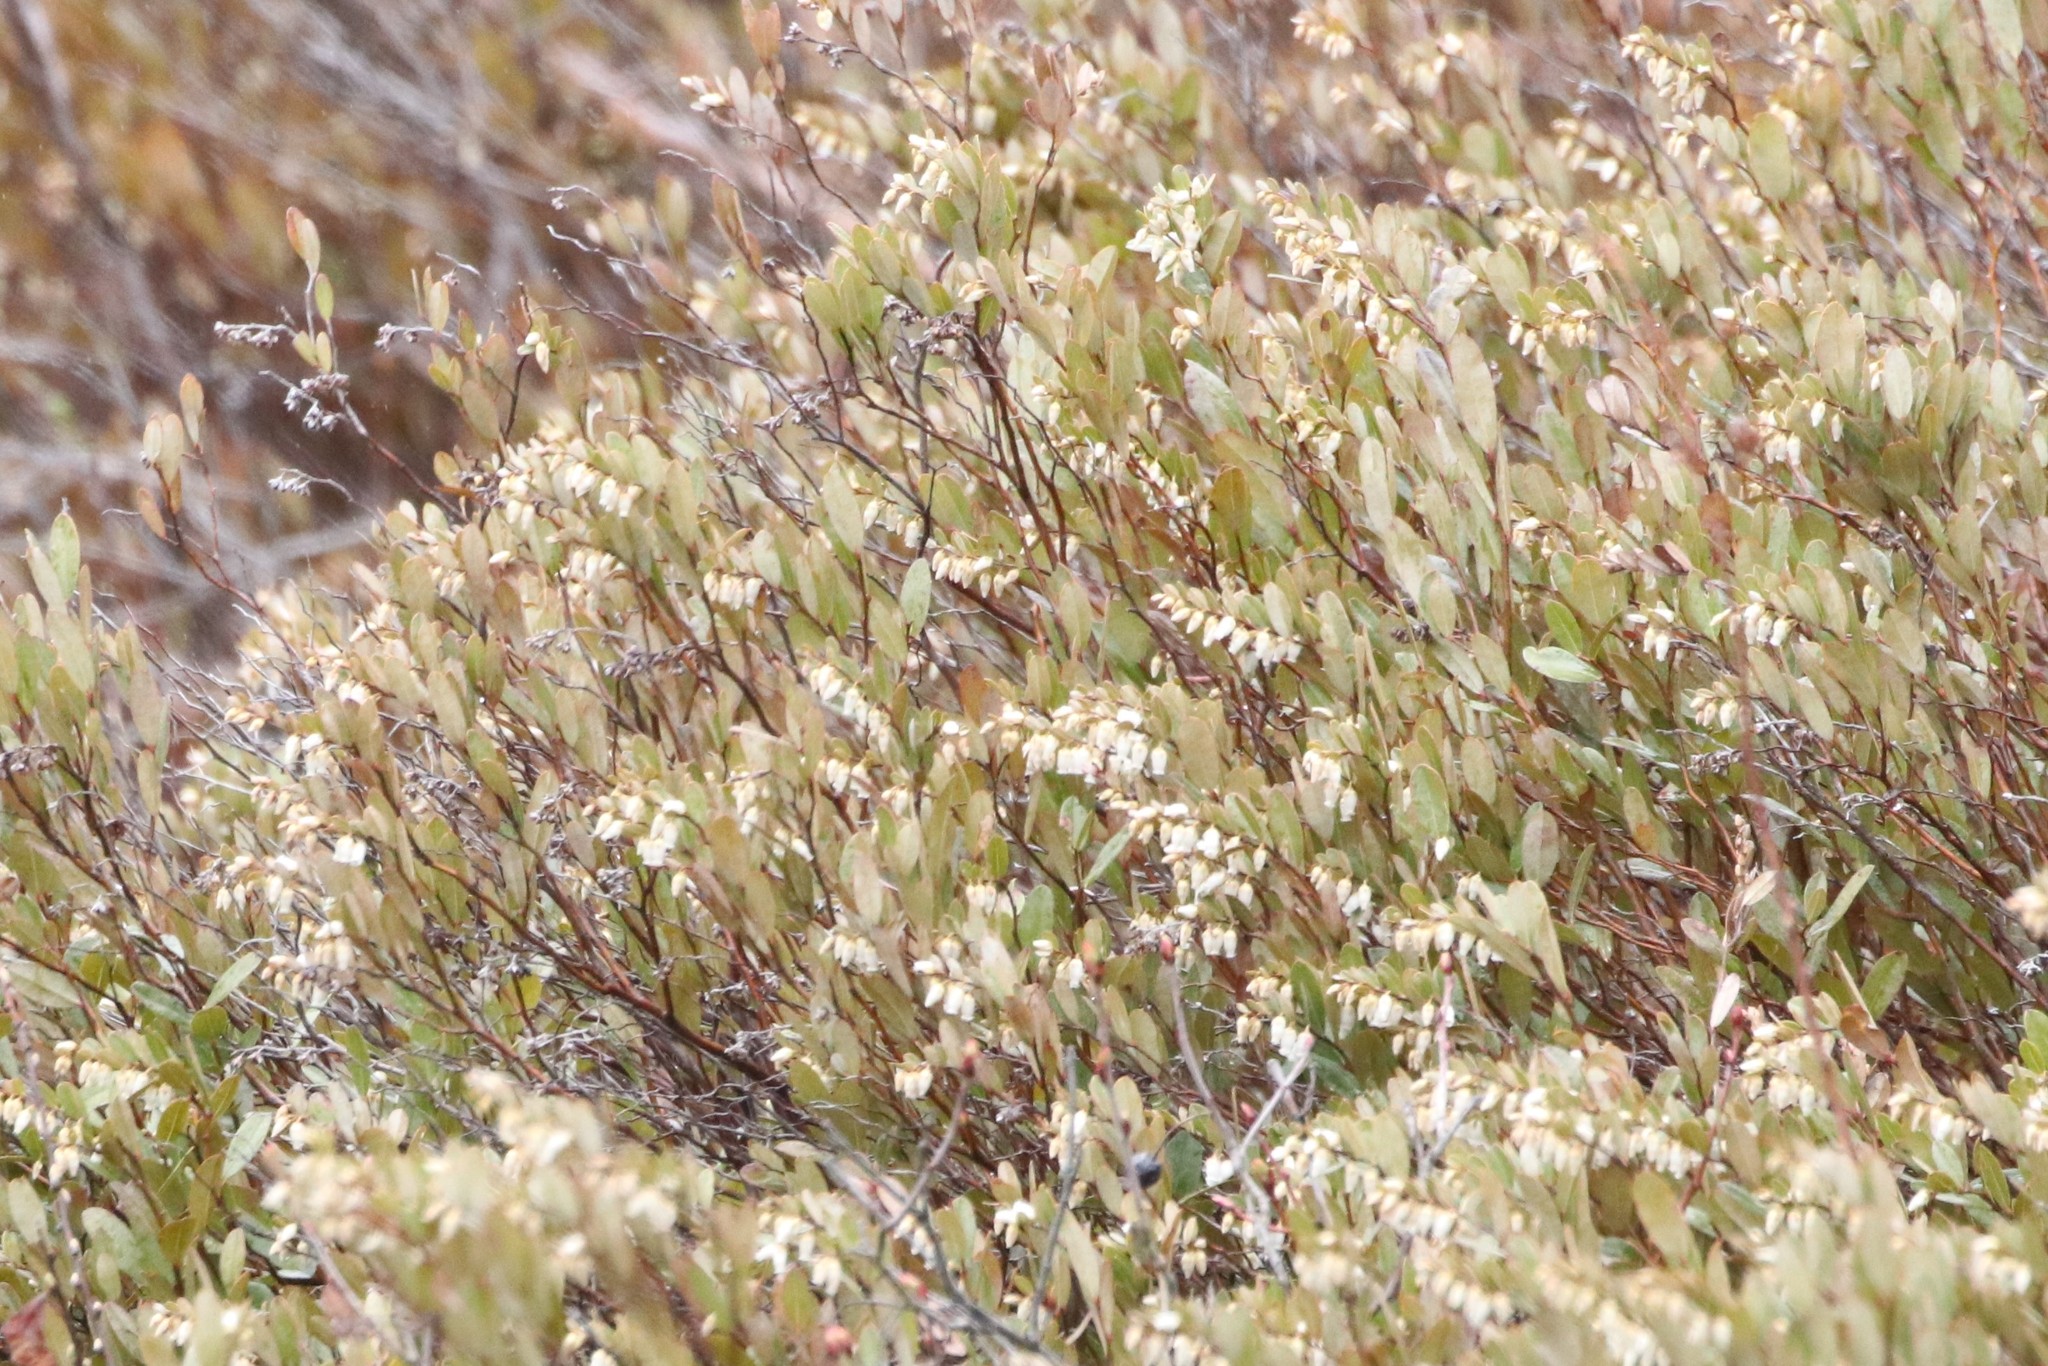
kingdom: Plantae
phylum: Tracheophyta
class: Magnoliopsida
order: Ericales
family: Ericaceae
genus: Chamaedaphne
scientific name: Chamaedaphne calyculata
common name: Leatherleaf
